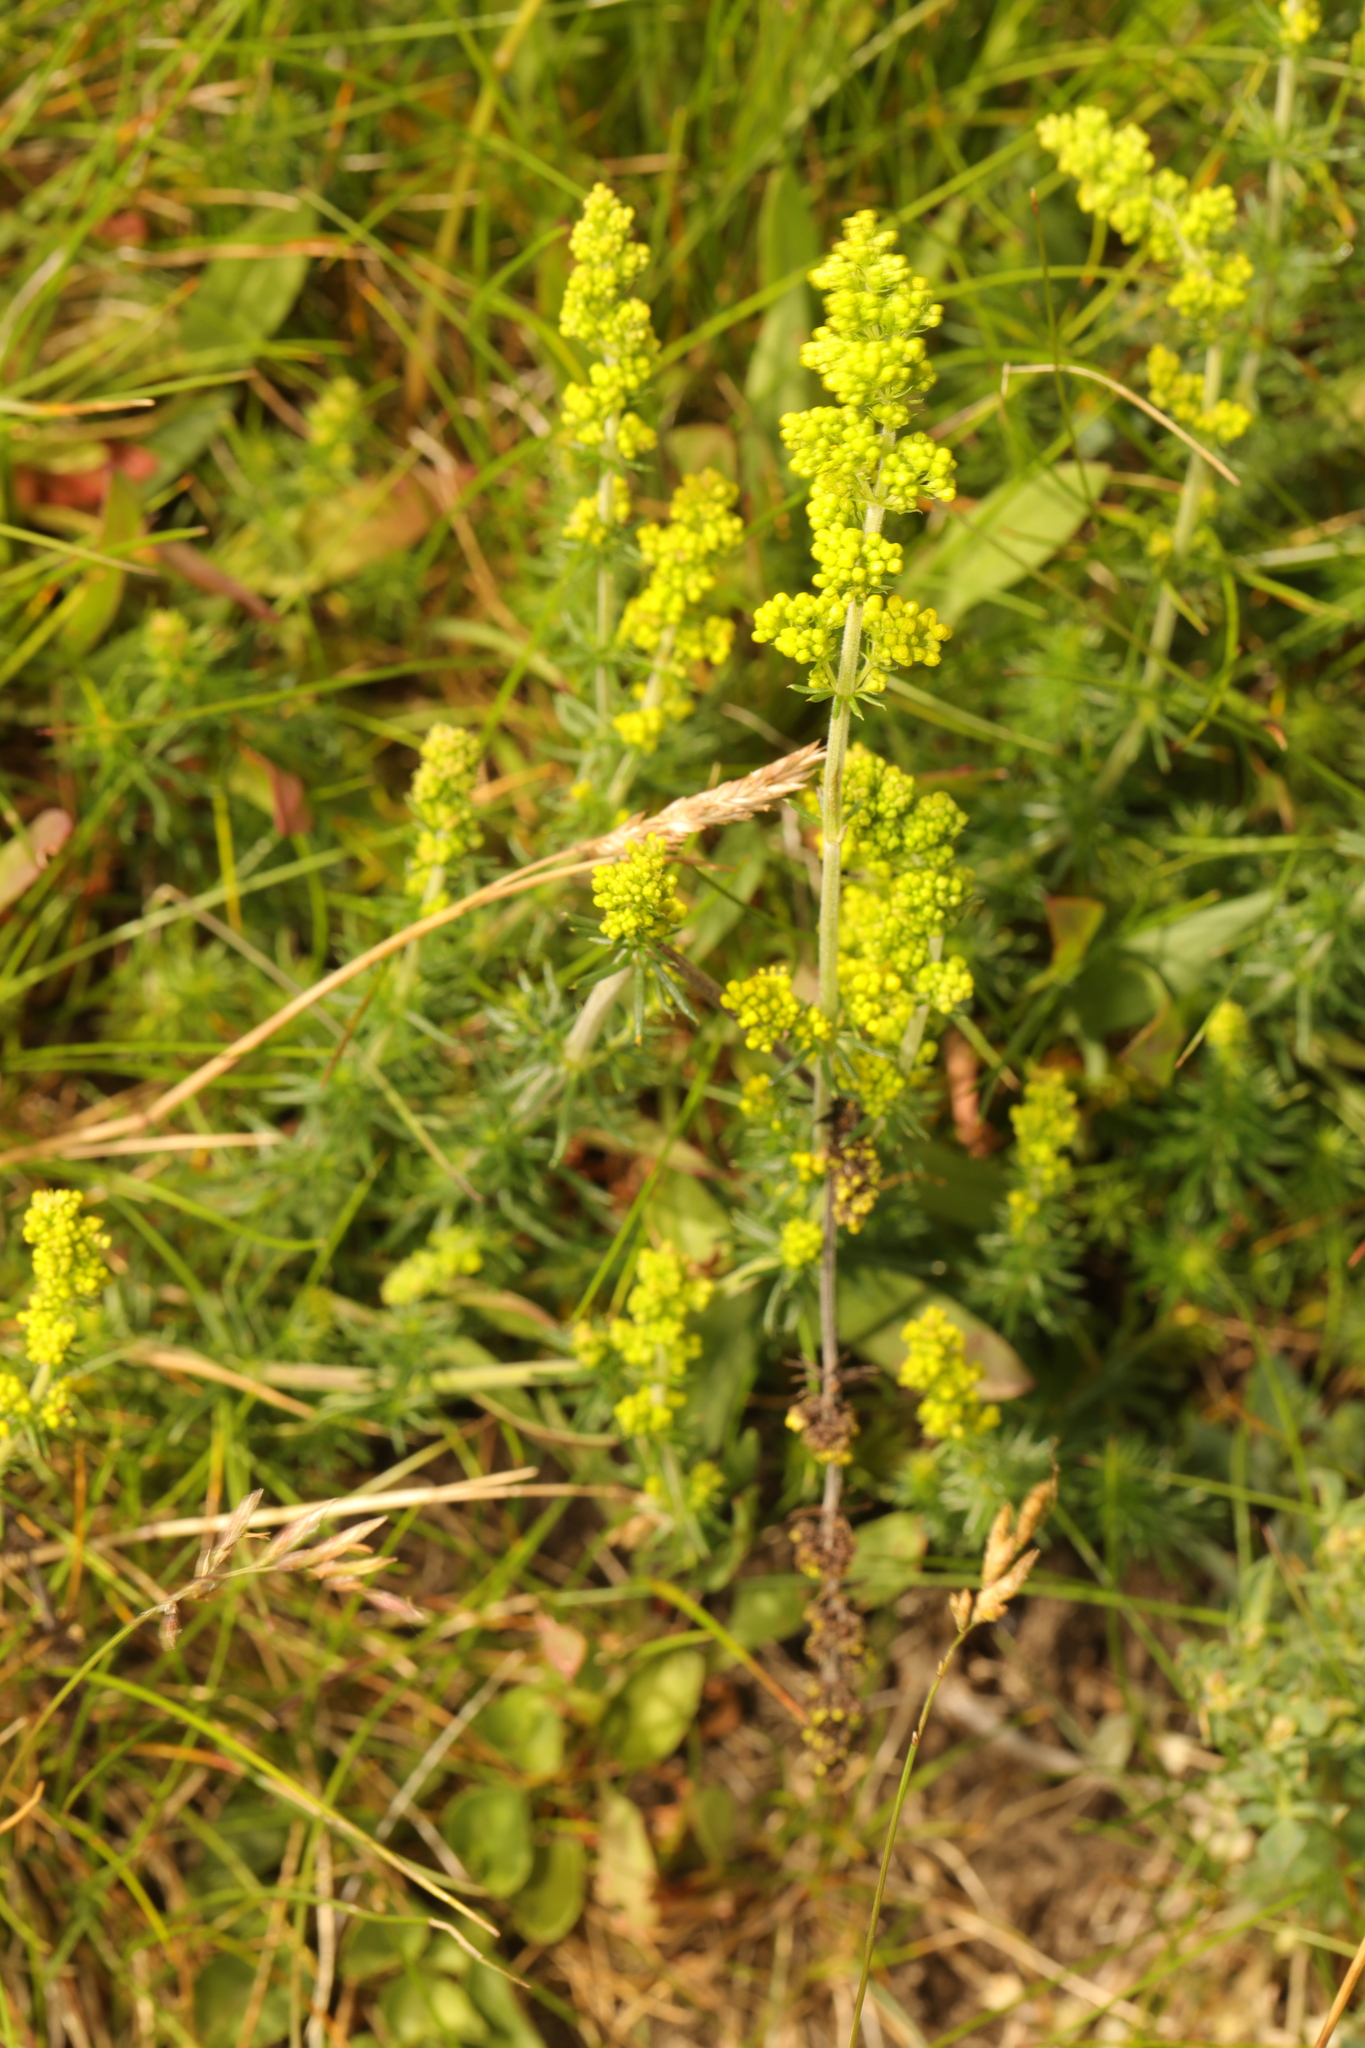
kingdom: Plantae
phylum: Tracheophyta
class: Magnoliopsida
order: Gentianales
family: Rubiaceae
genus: Galium
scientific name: Galium verum
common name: Lady's bedstraw
